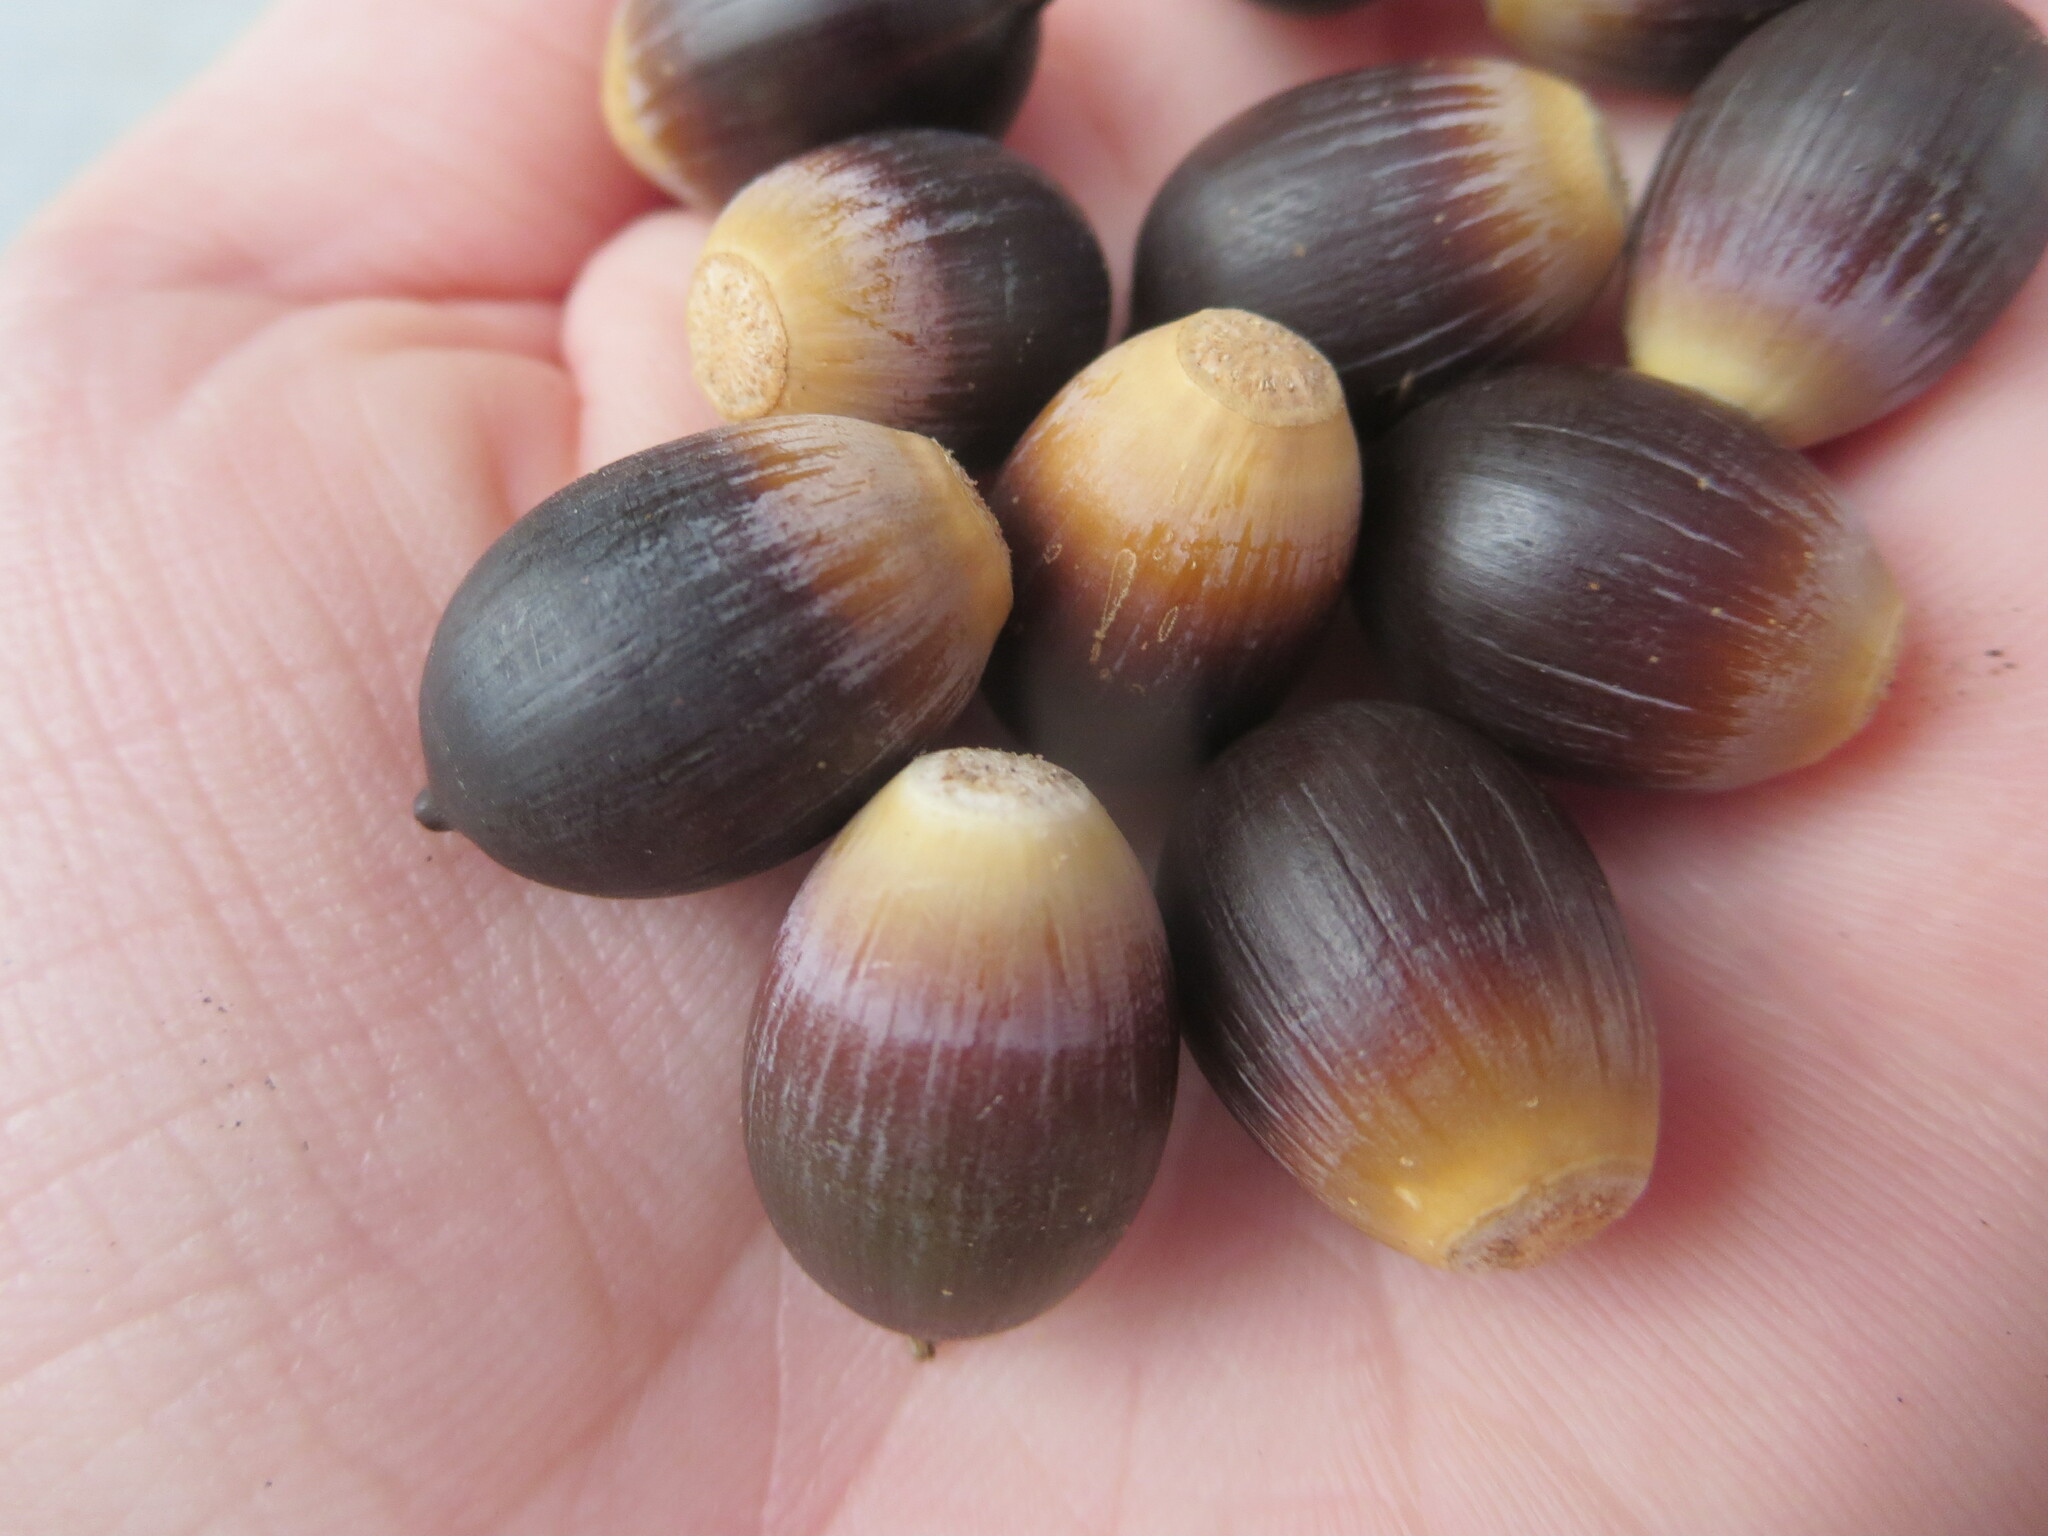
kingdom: Plantae
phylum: Tracheophyta
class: Magnoliopsida
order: Fagales
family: Fagaceae
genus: Quercus
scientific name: Quercus virginiana
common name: Southern live oak
